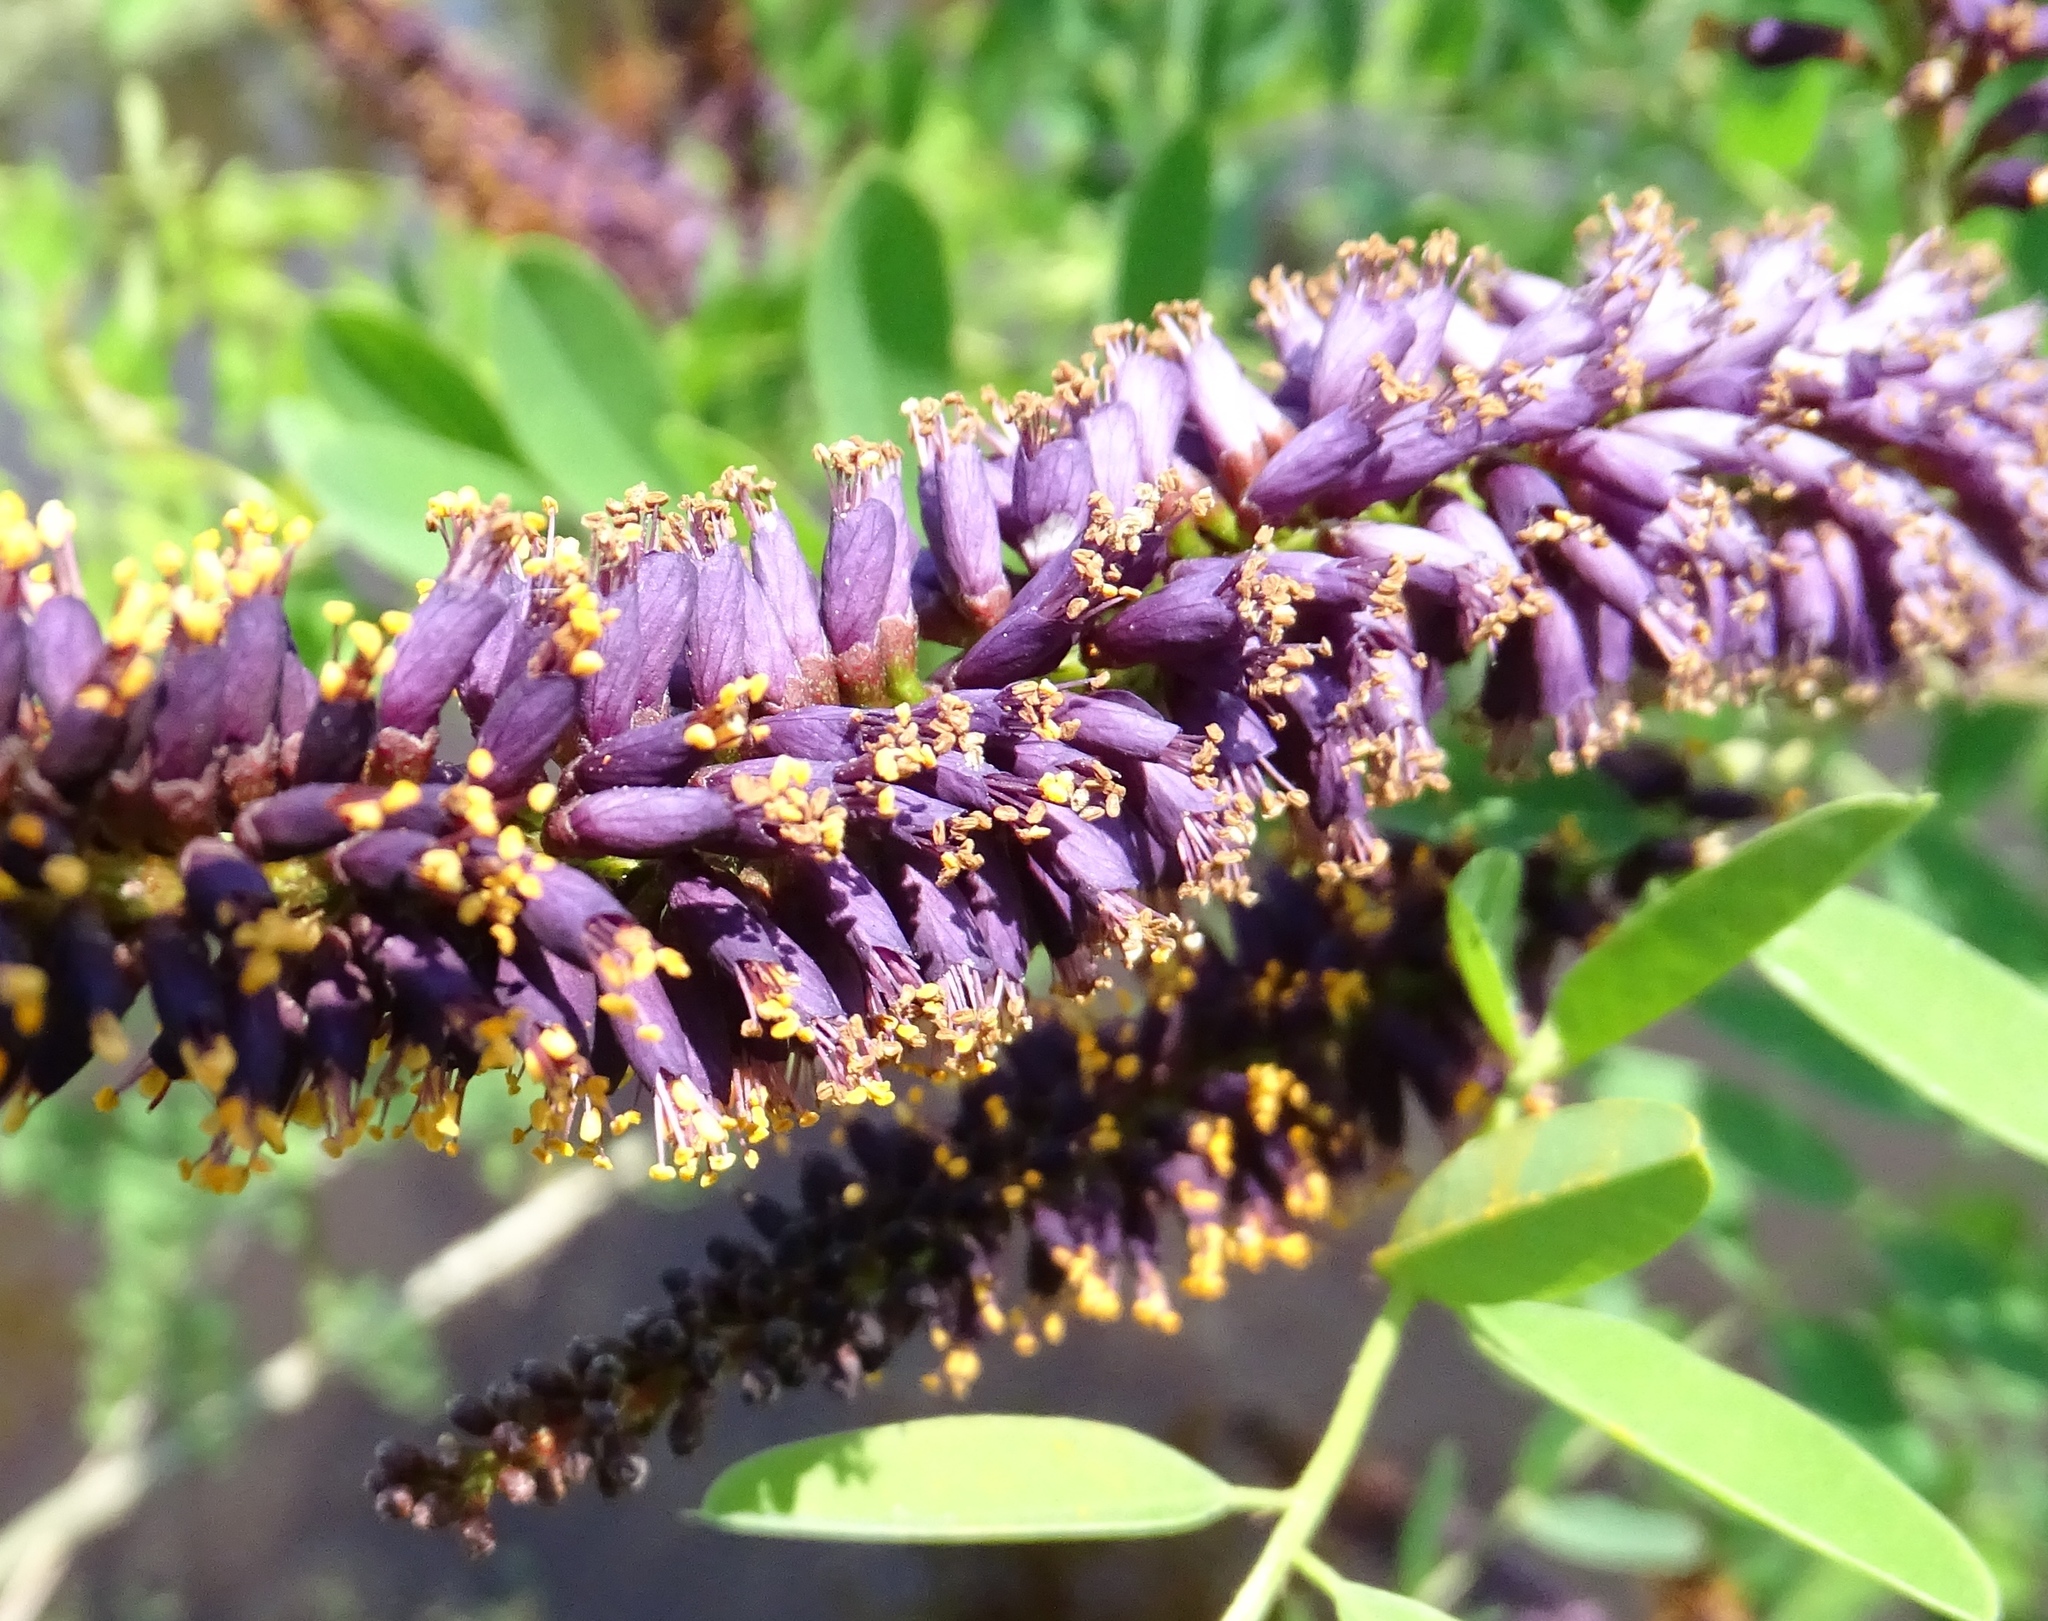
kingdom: Plantae
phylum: Tracheophyta
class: Magnoliopsida
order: Fabales
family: Fabaceae
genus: Amorpha
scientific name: Amorpha fruticosa
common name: False indigo
